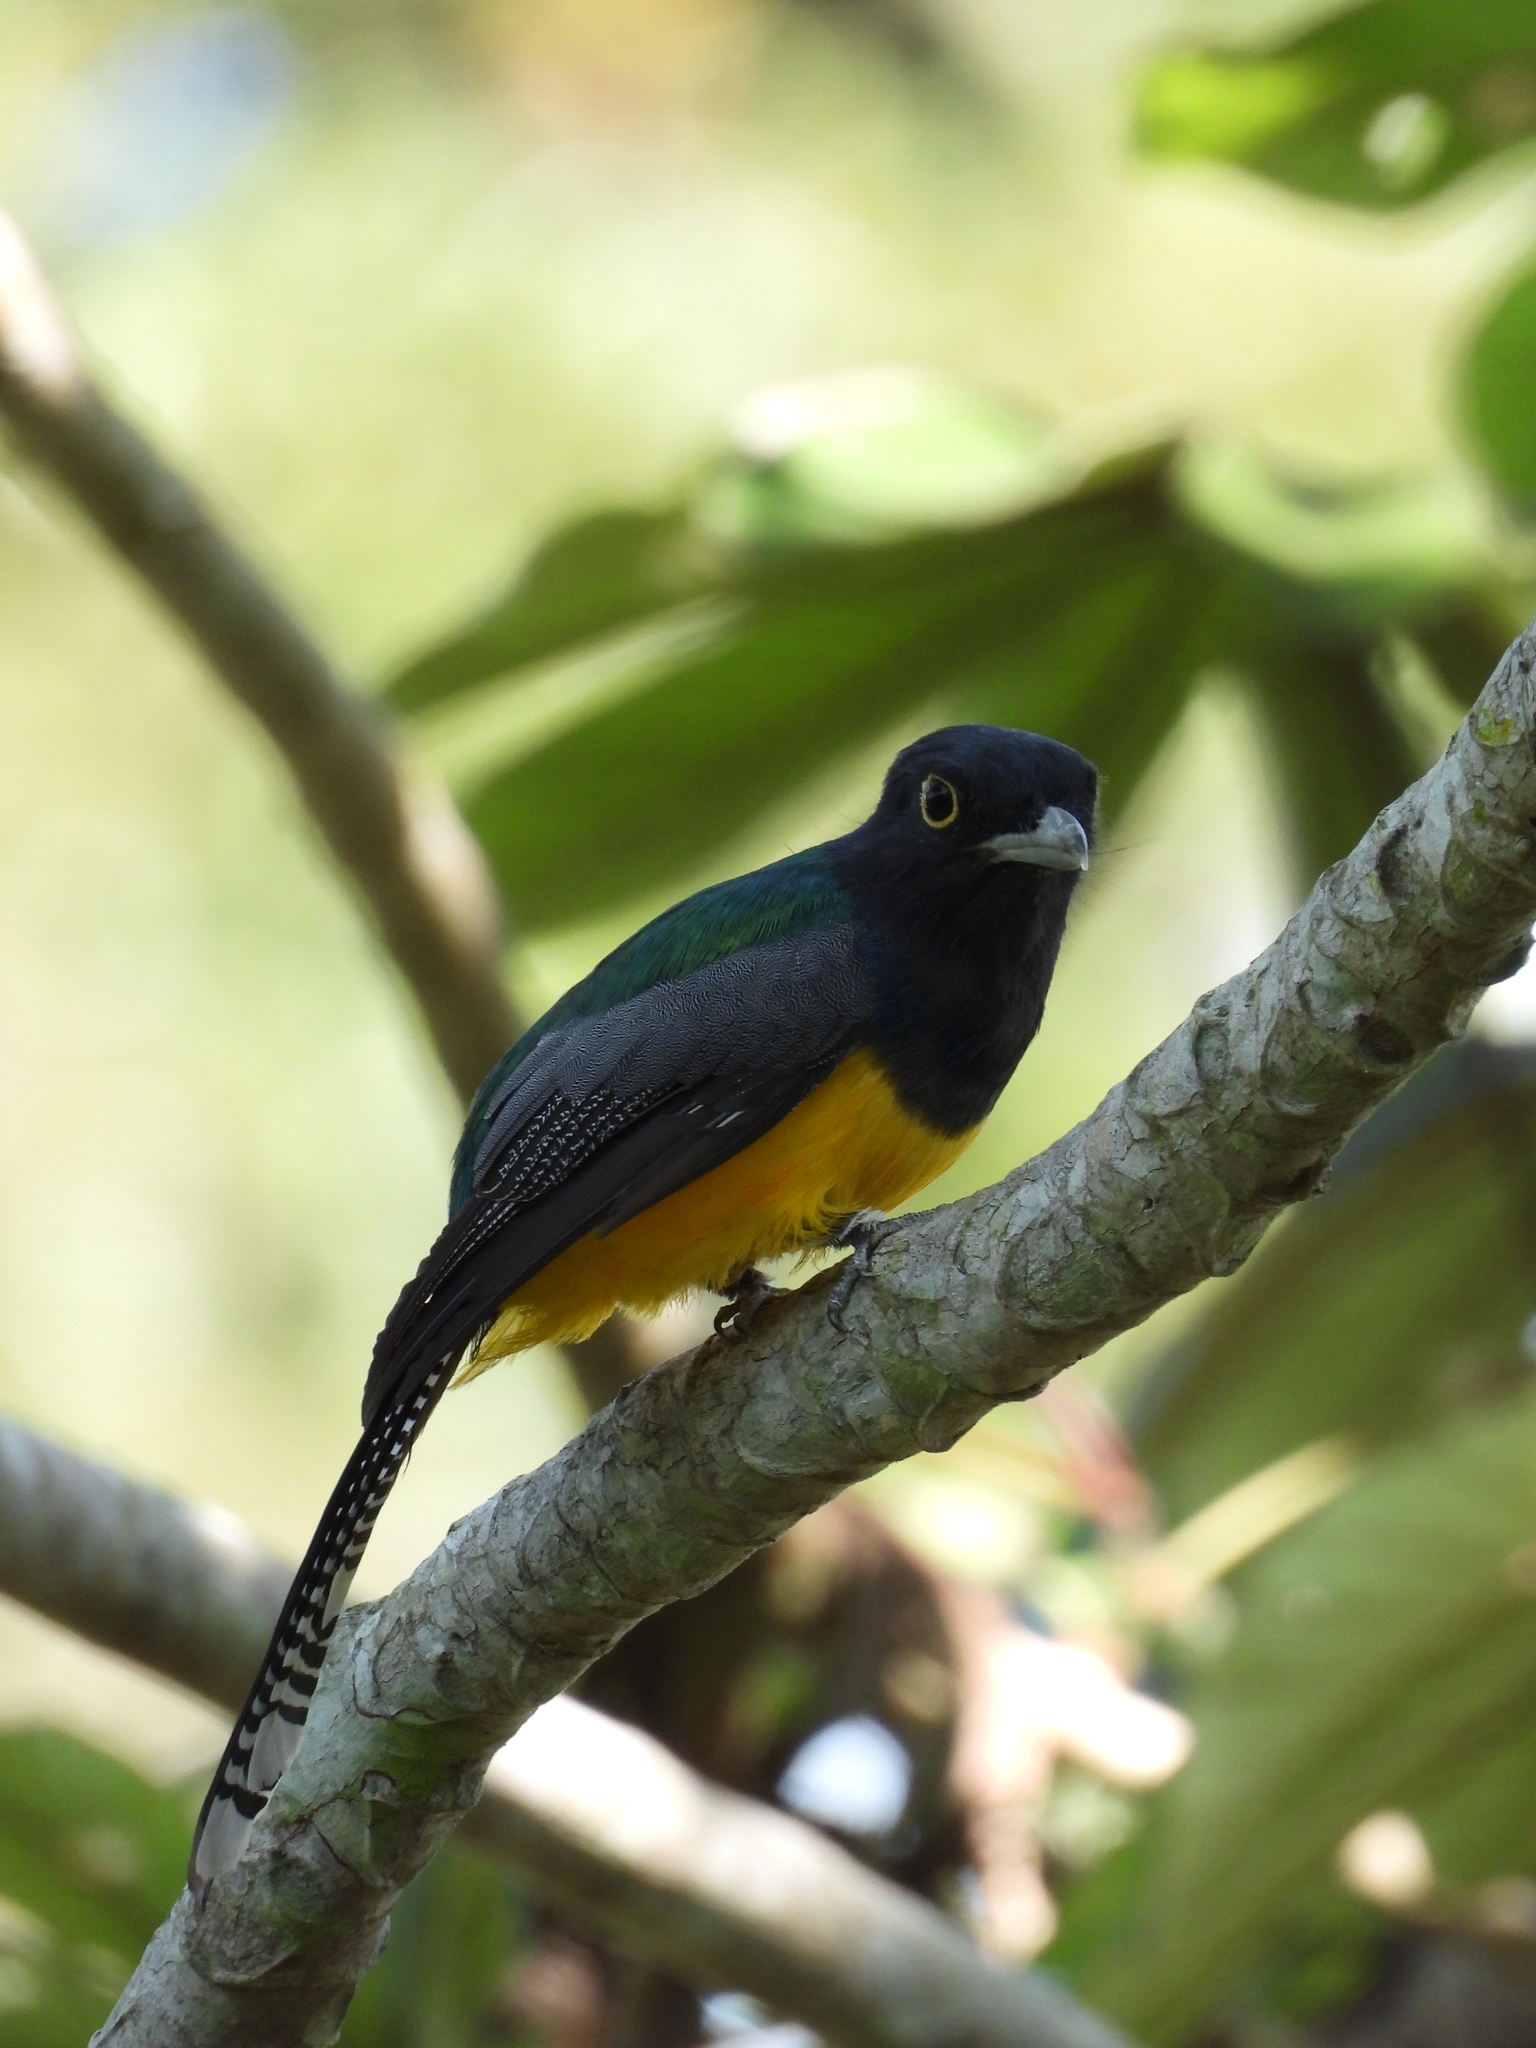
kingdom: Animalia
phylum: Chordata
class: Aves
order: Trogoniformes
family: Trogonidae
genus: Trogon
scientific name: Trogon caligatus
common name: Gartered trogon
